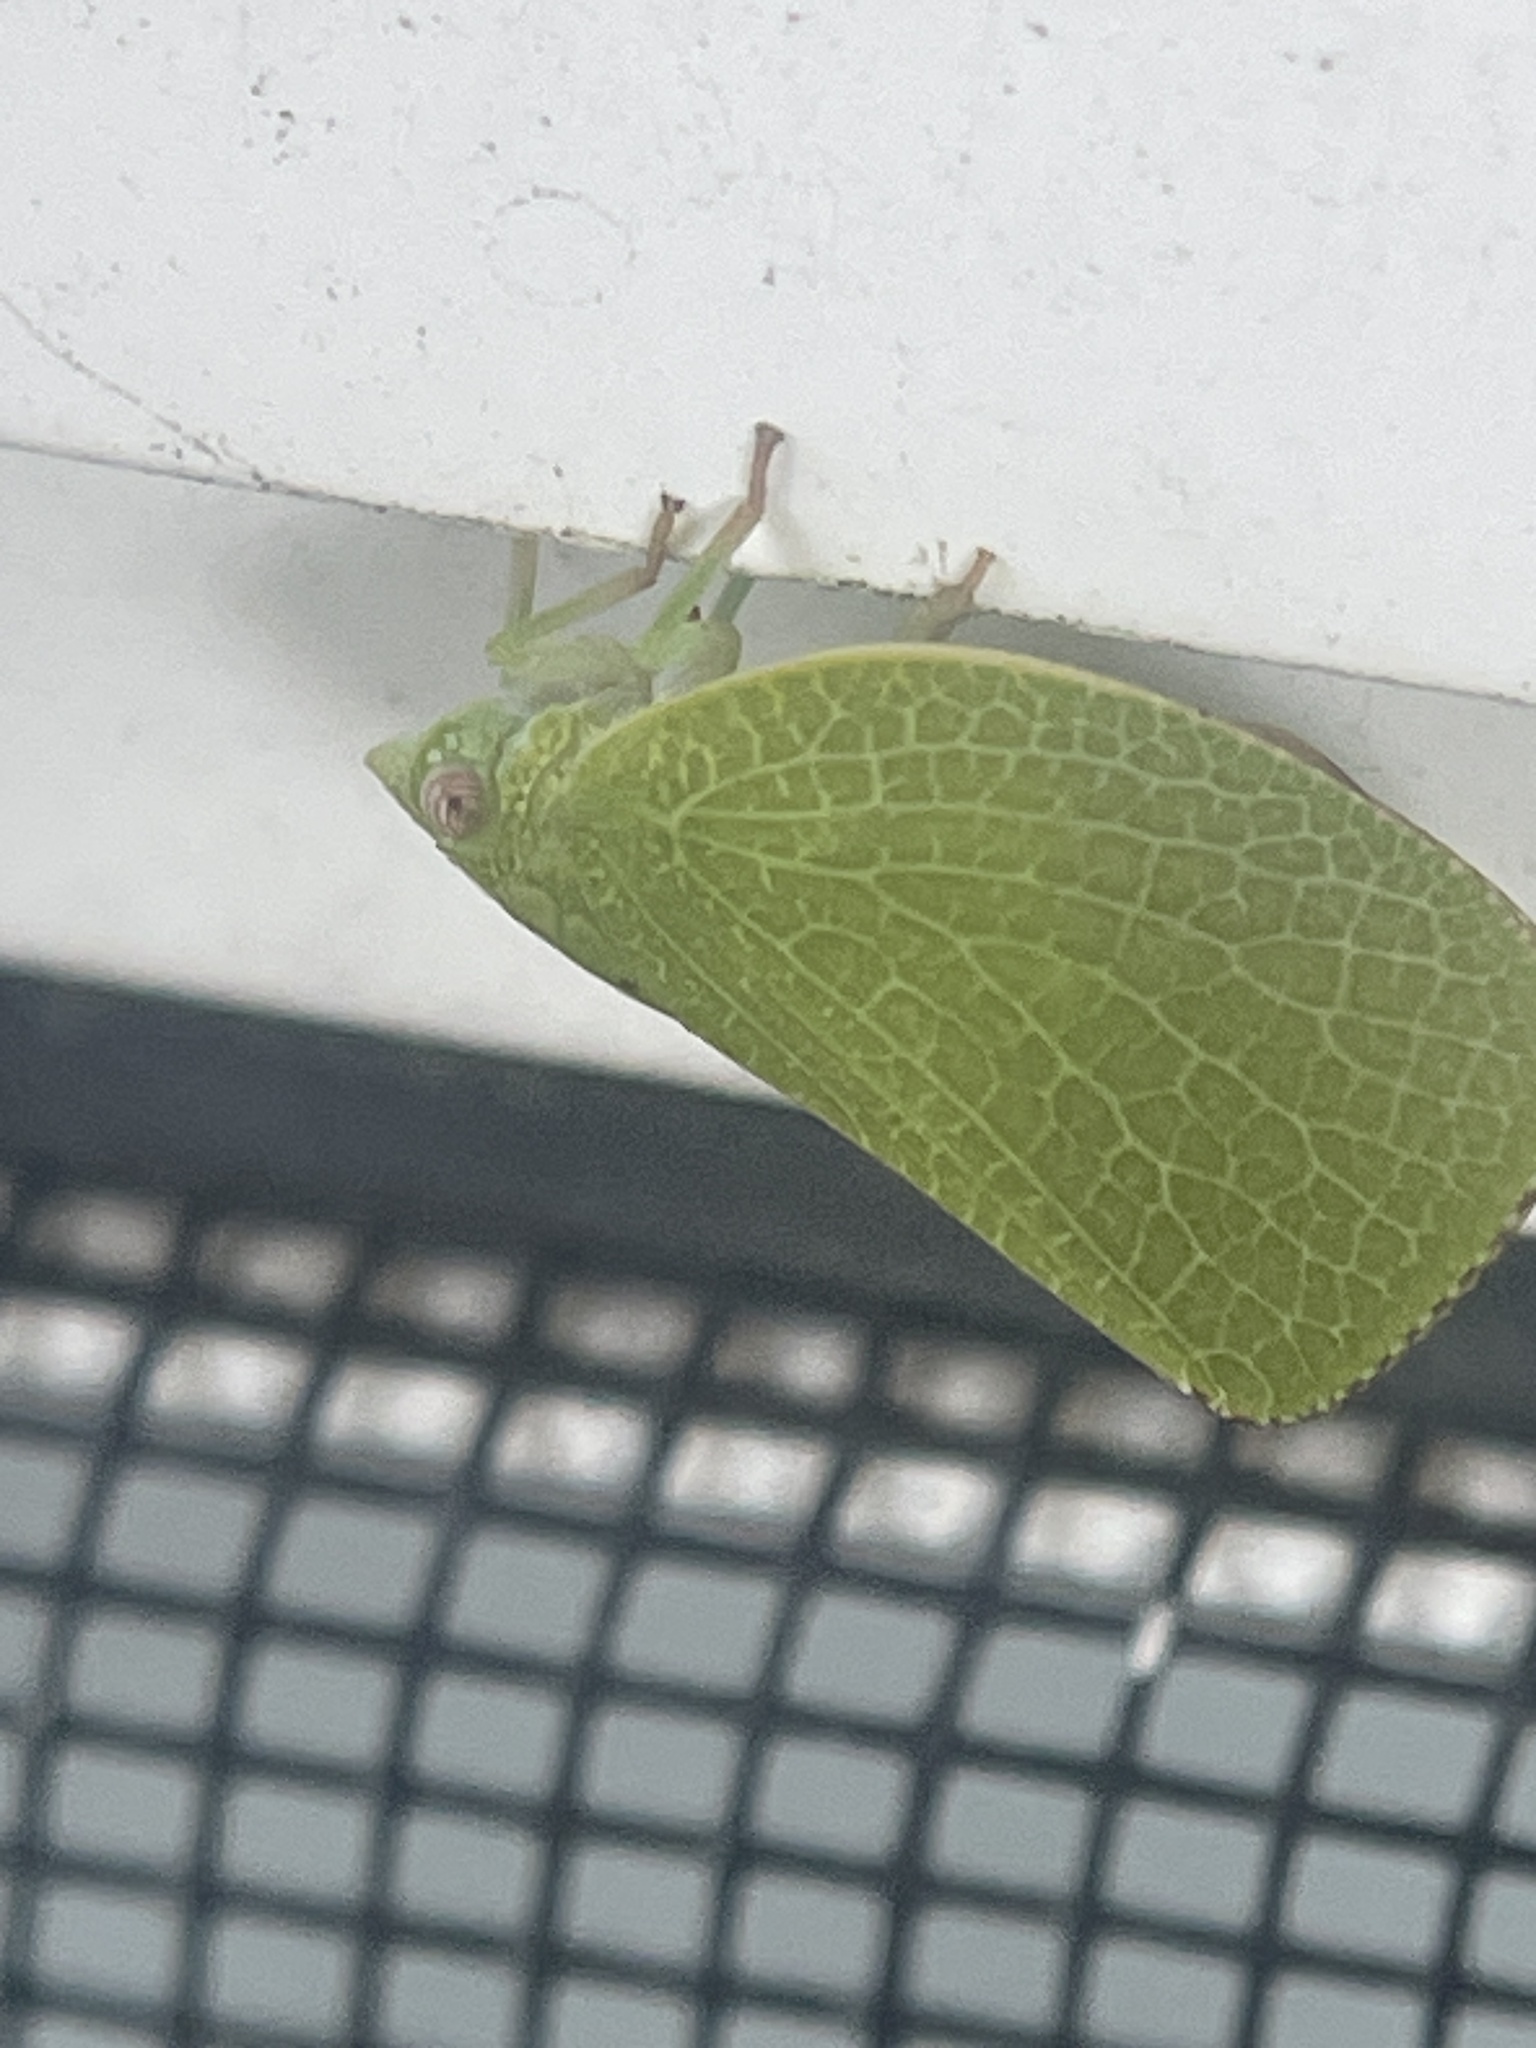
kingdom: Animalia
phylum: Arthropoda
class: Insecta
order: Hemiptera
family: Acanaloniidae
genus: Acanalonia
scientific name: Acanalonia conica
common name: Green cone-headed planthopper
